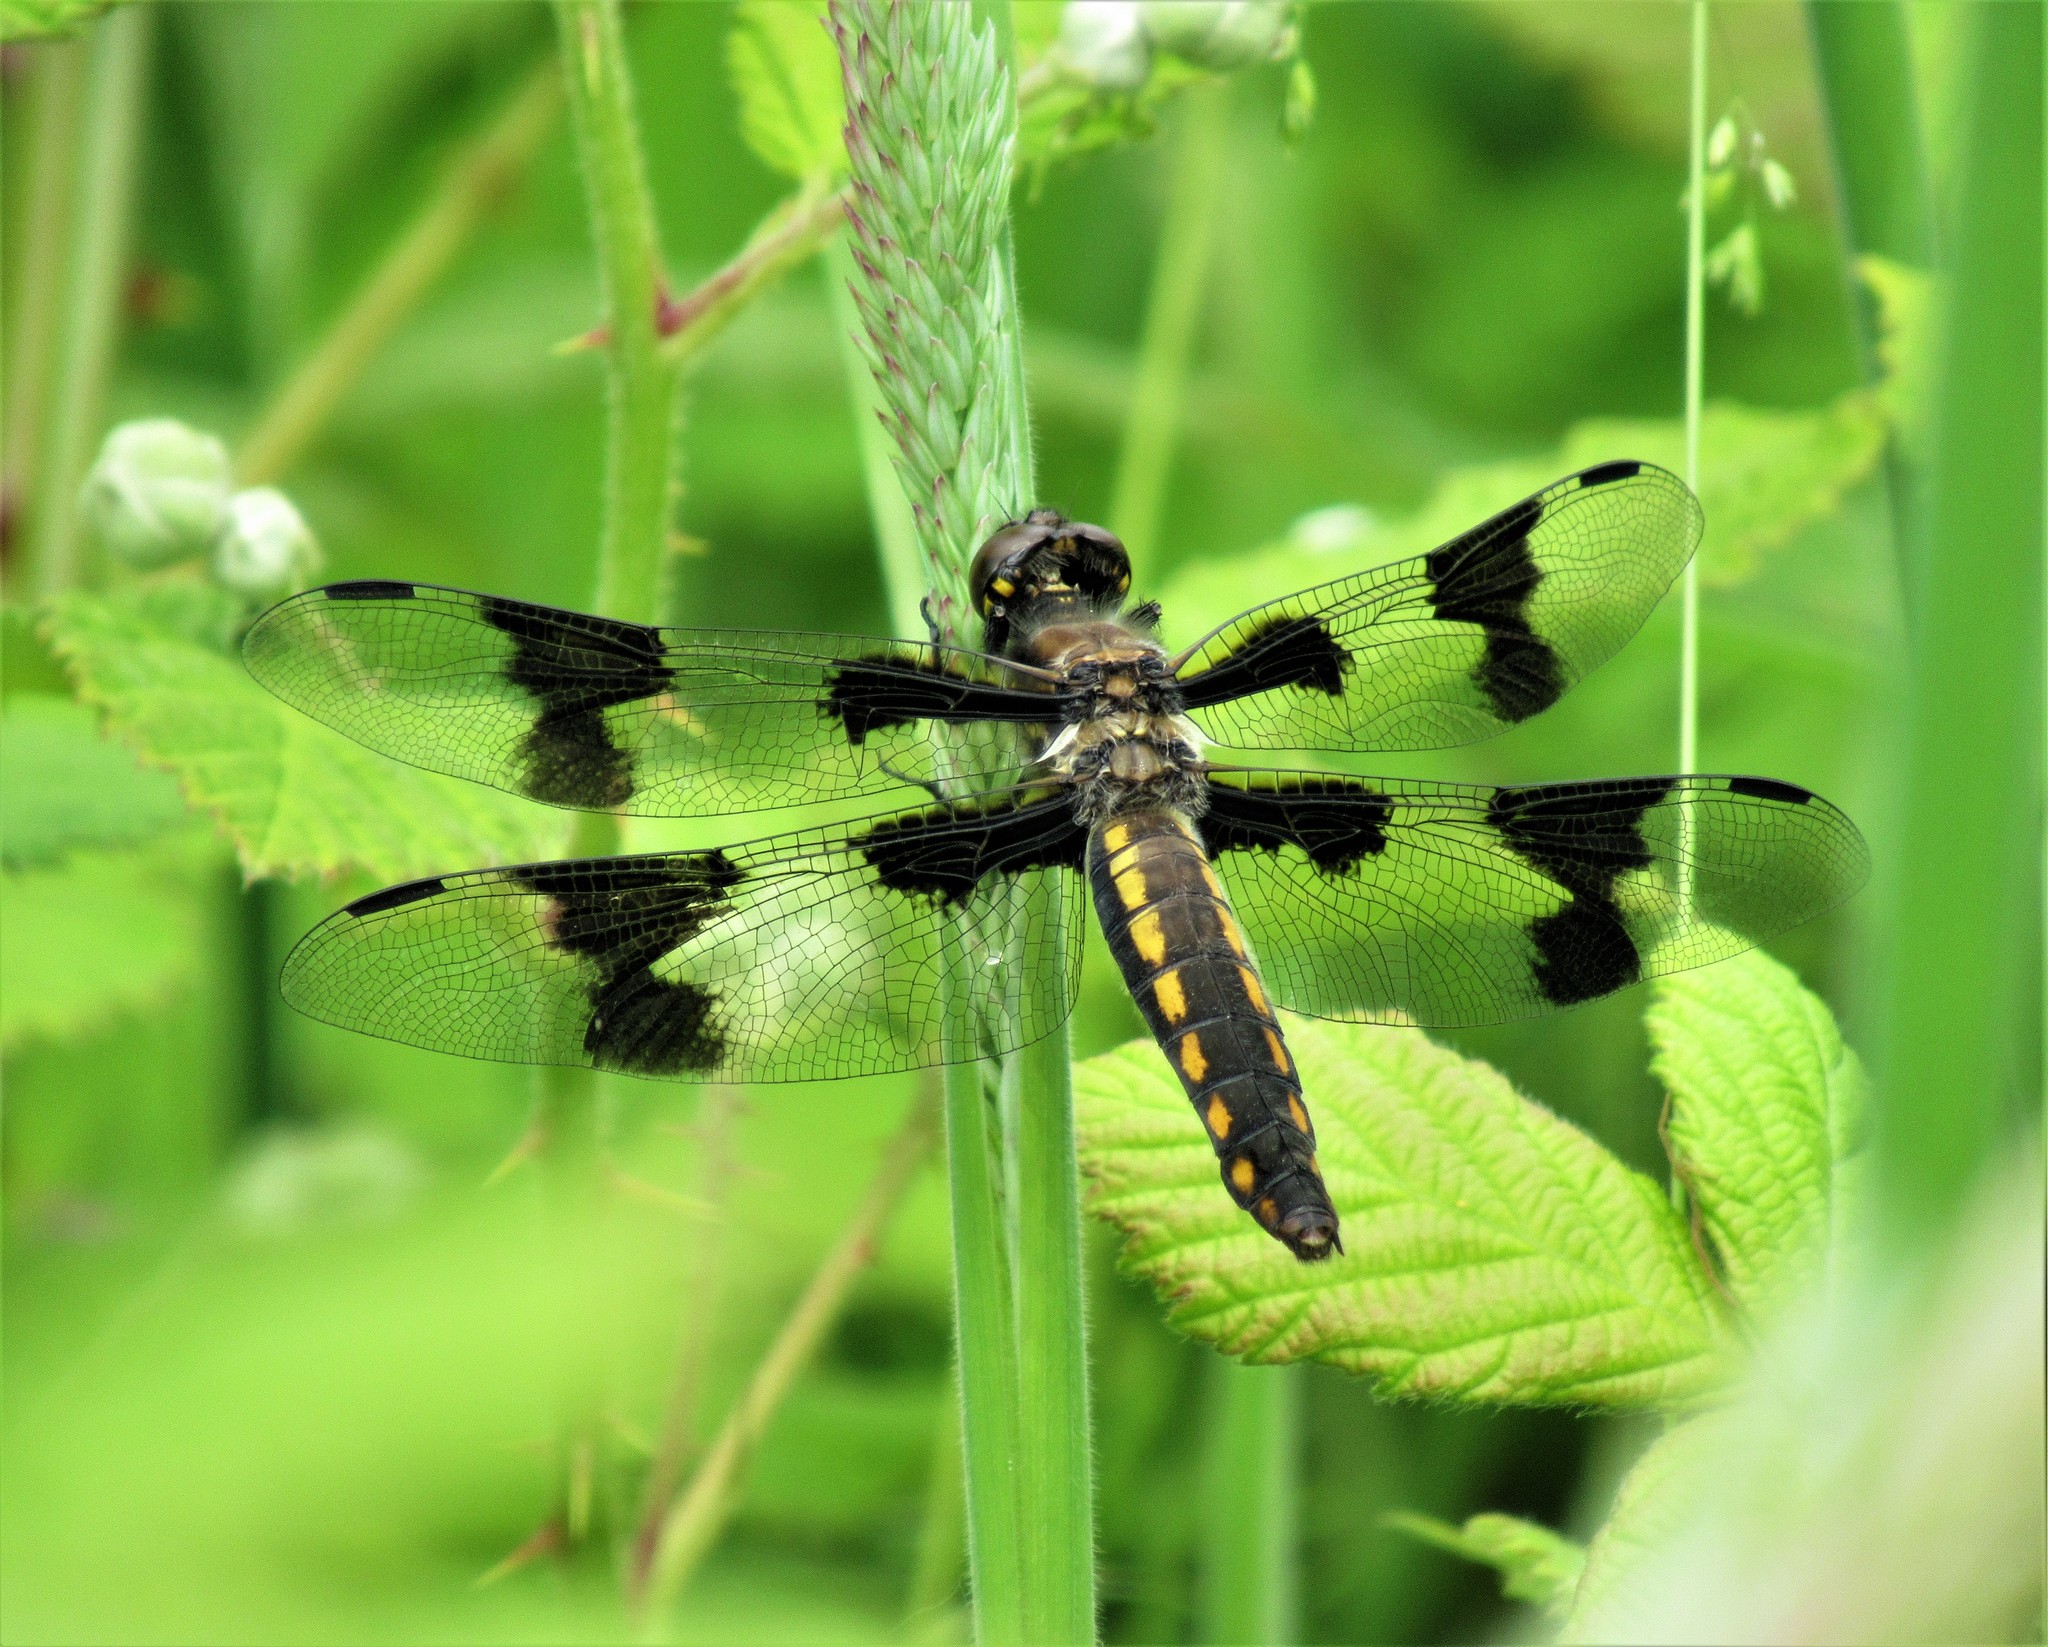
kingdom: Animalia
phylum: Arthropoda
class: Insecta
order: Odonata
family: Libellulidae
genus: Libellula
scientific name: Libellula forensis
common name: Eight-spotted skimmer
